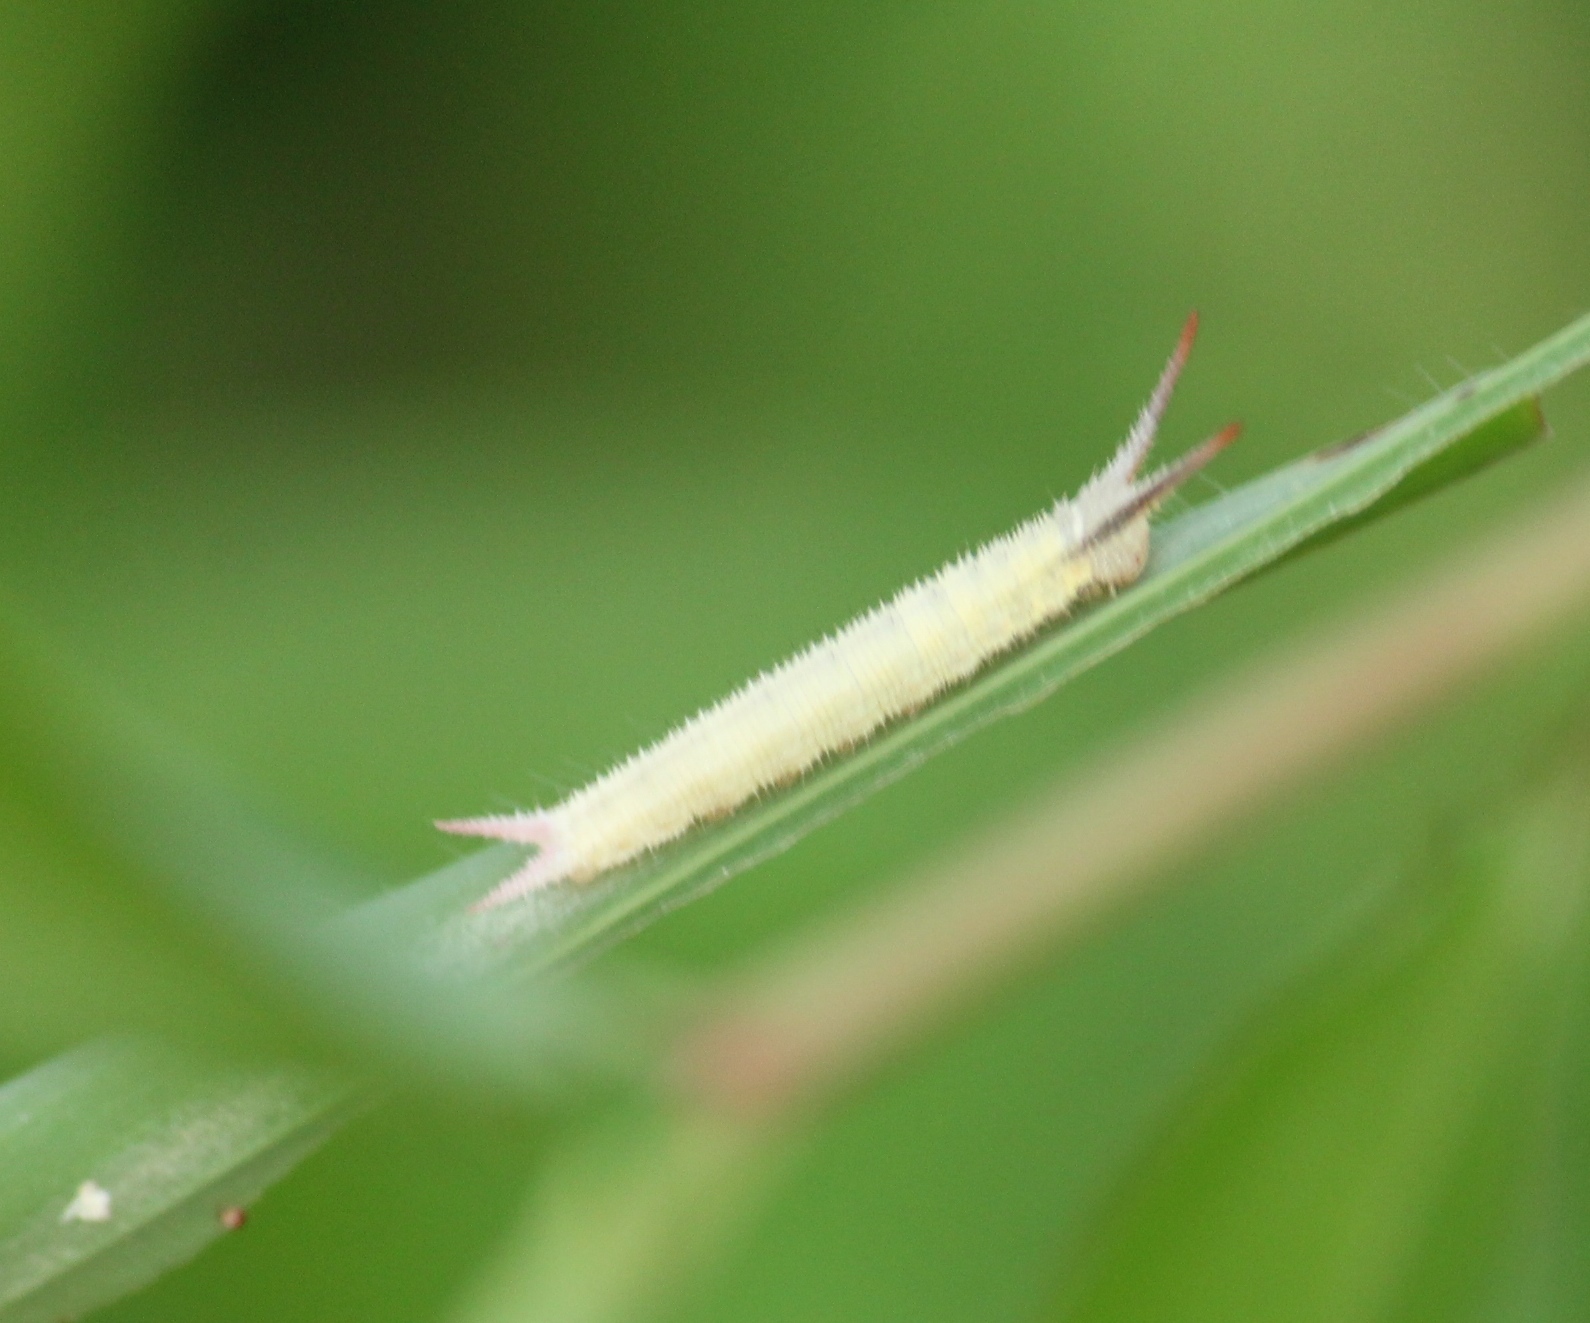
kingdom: Animalia
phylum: Arthropoda
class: Insecta
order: Lepidoptera
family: Nymphalidae
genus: Orsotriaena
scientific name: Orsotriaena medus
